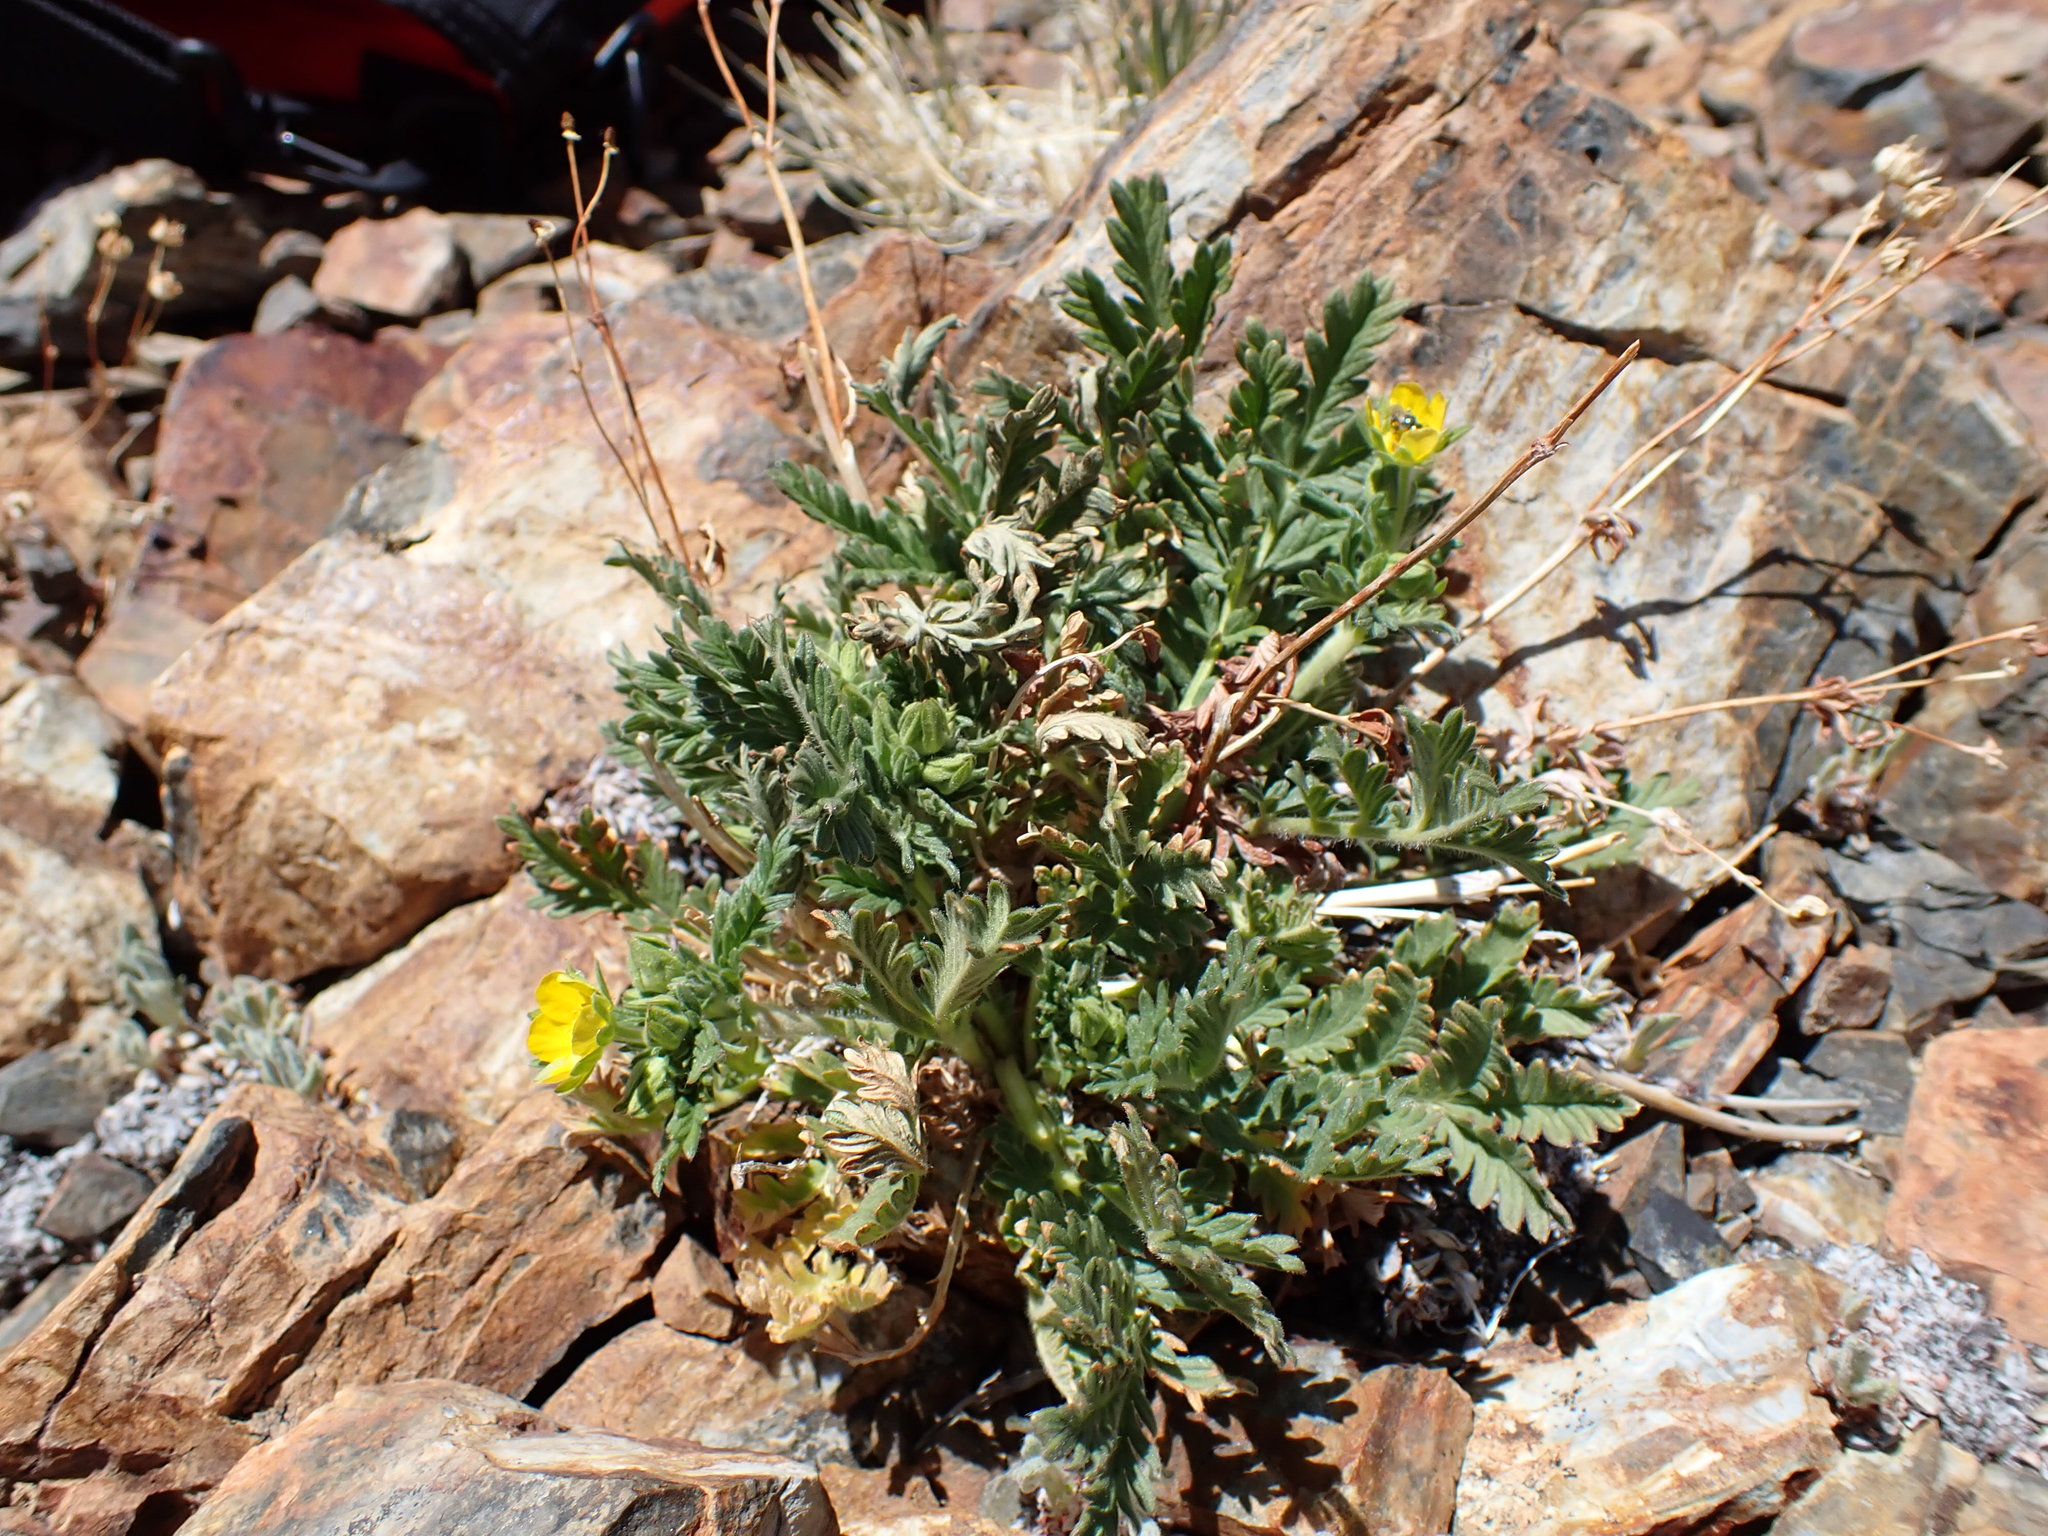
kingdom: Plantae
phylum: Tracheophyta
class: Magnoliopsida
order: Rosales
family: Rosaceae
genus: Potentilla
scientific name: Potentilla pensylvanica
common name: Pennsylvania cinquefoil
